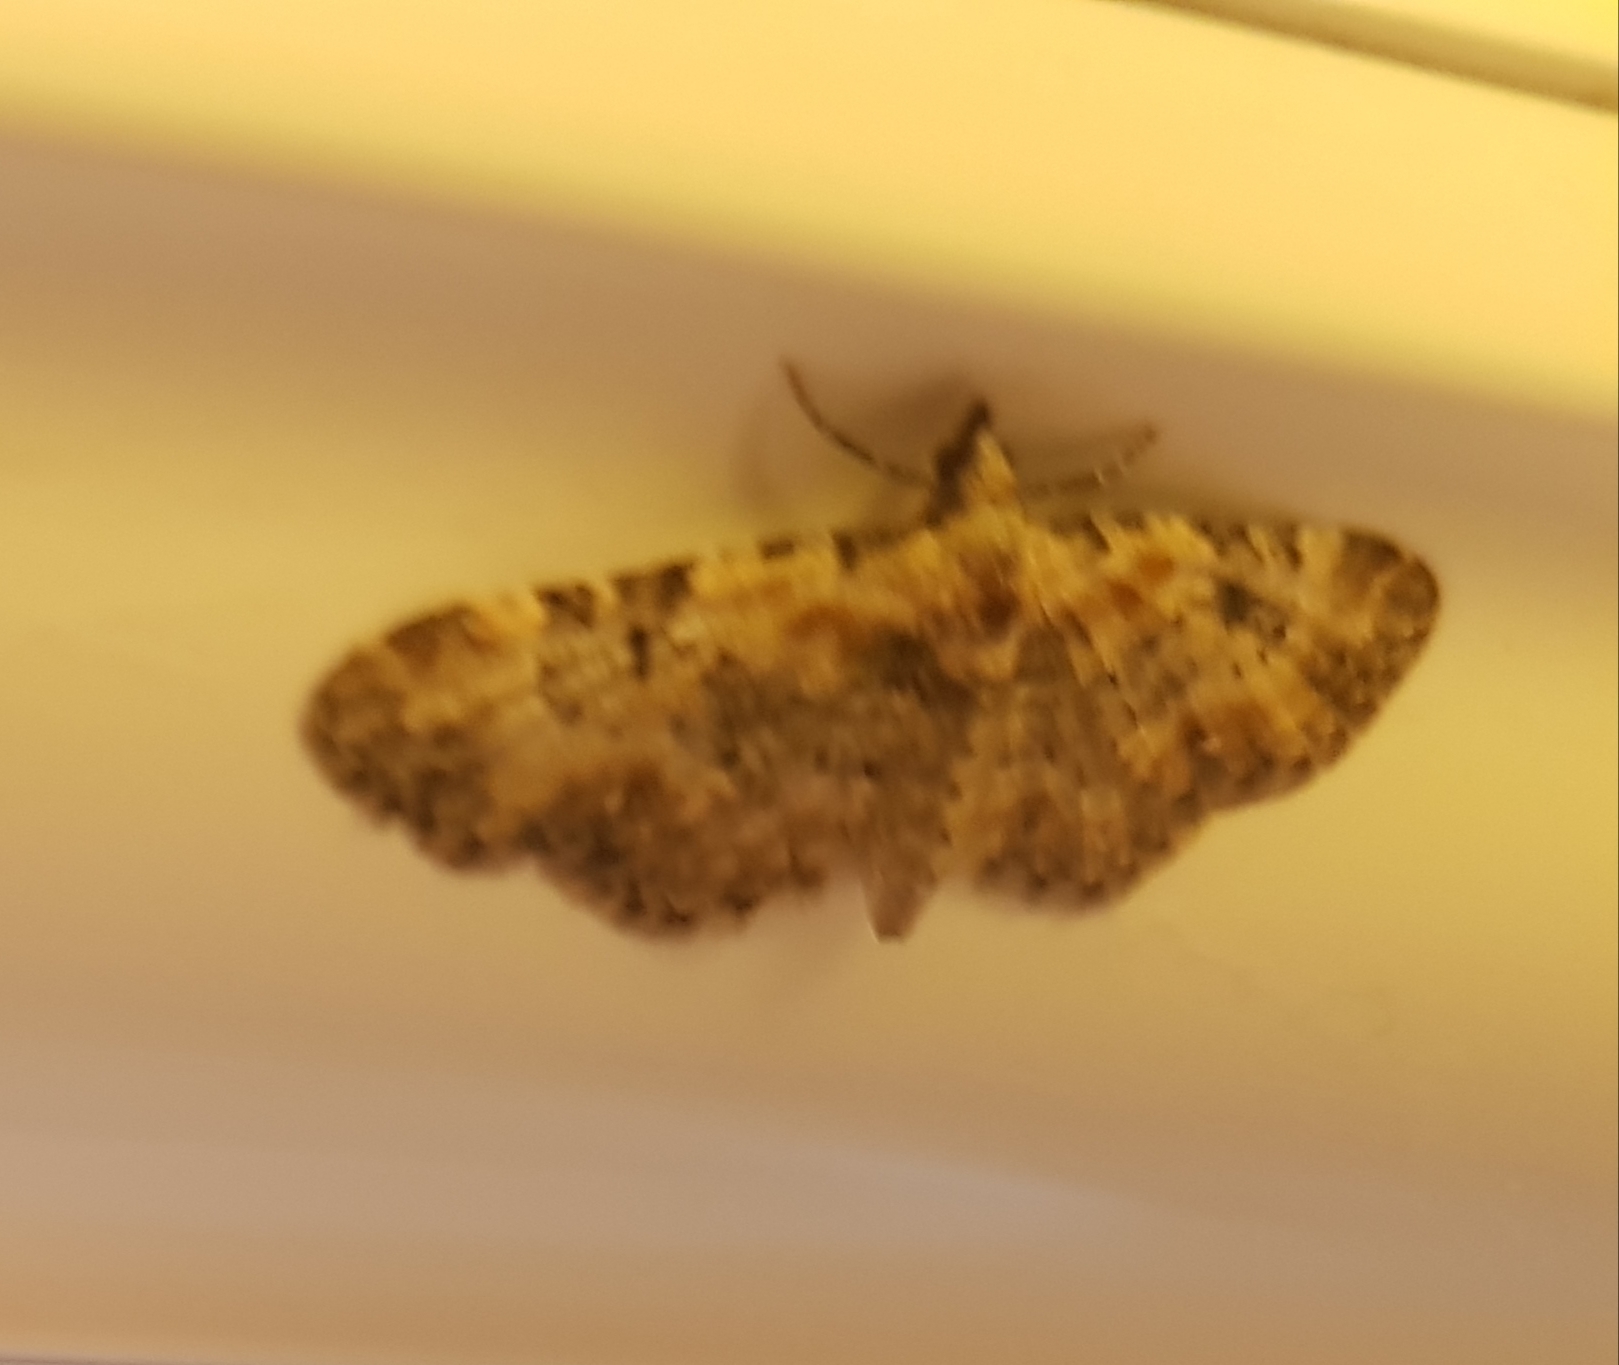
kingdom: Animalia
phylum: Arthropoda
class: Insecta
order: Lepidoptera
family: Geometridae
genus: Eupithecia
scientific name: Eupithecia pulchellata
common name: Foxglove pug
